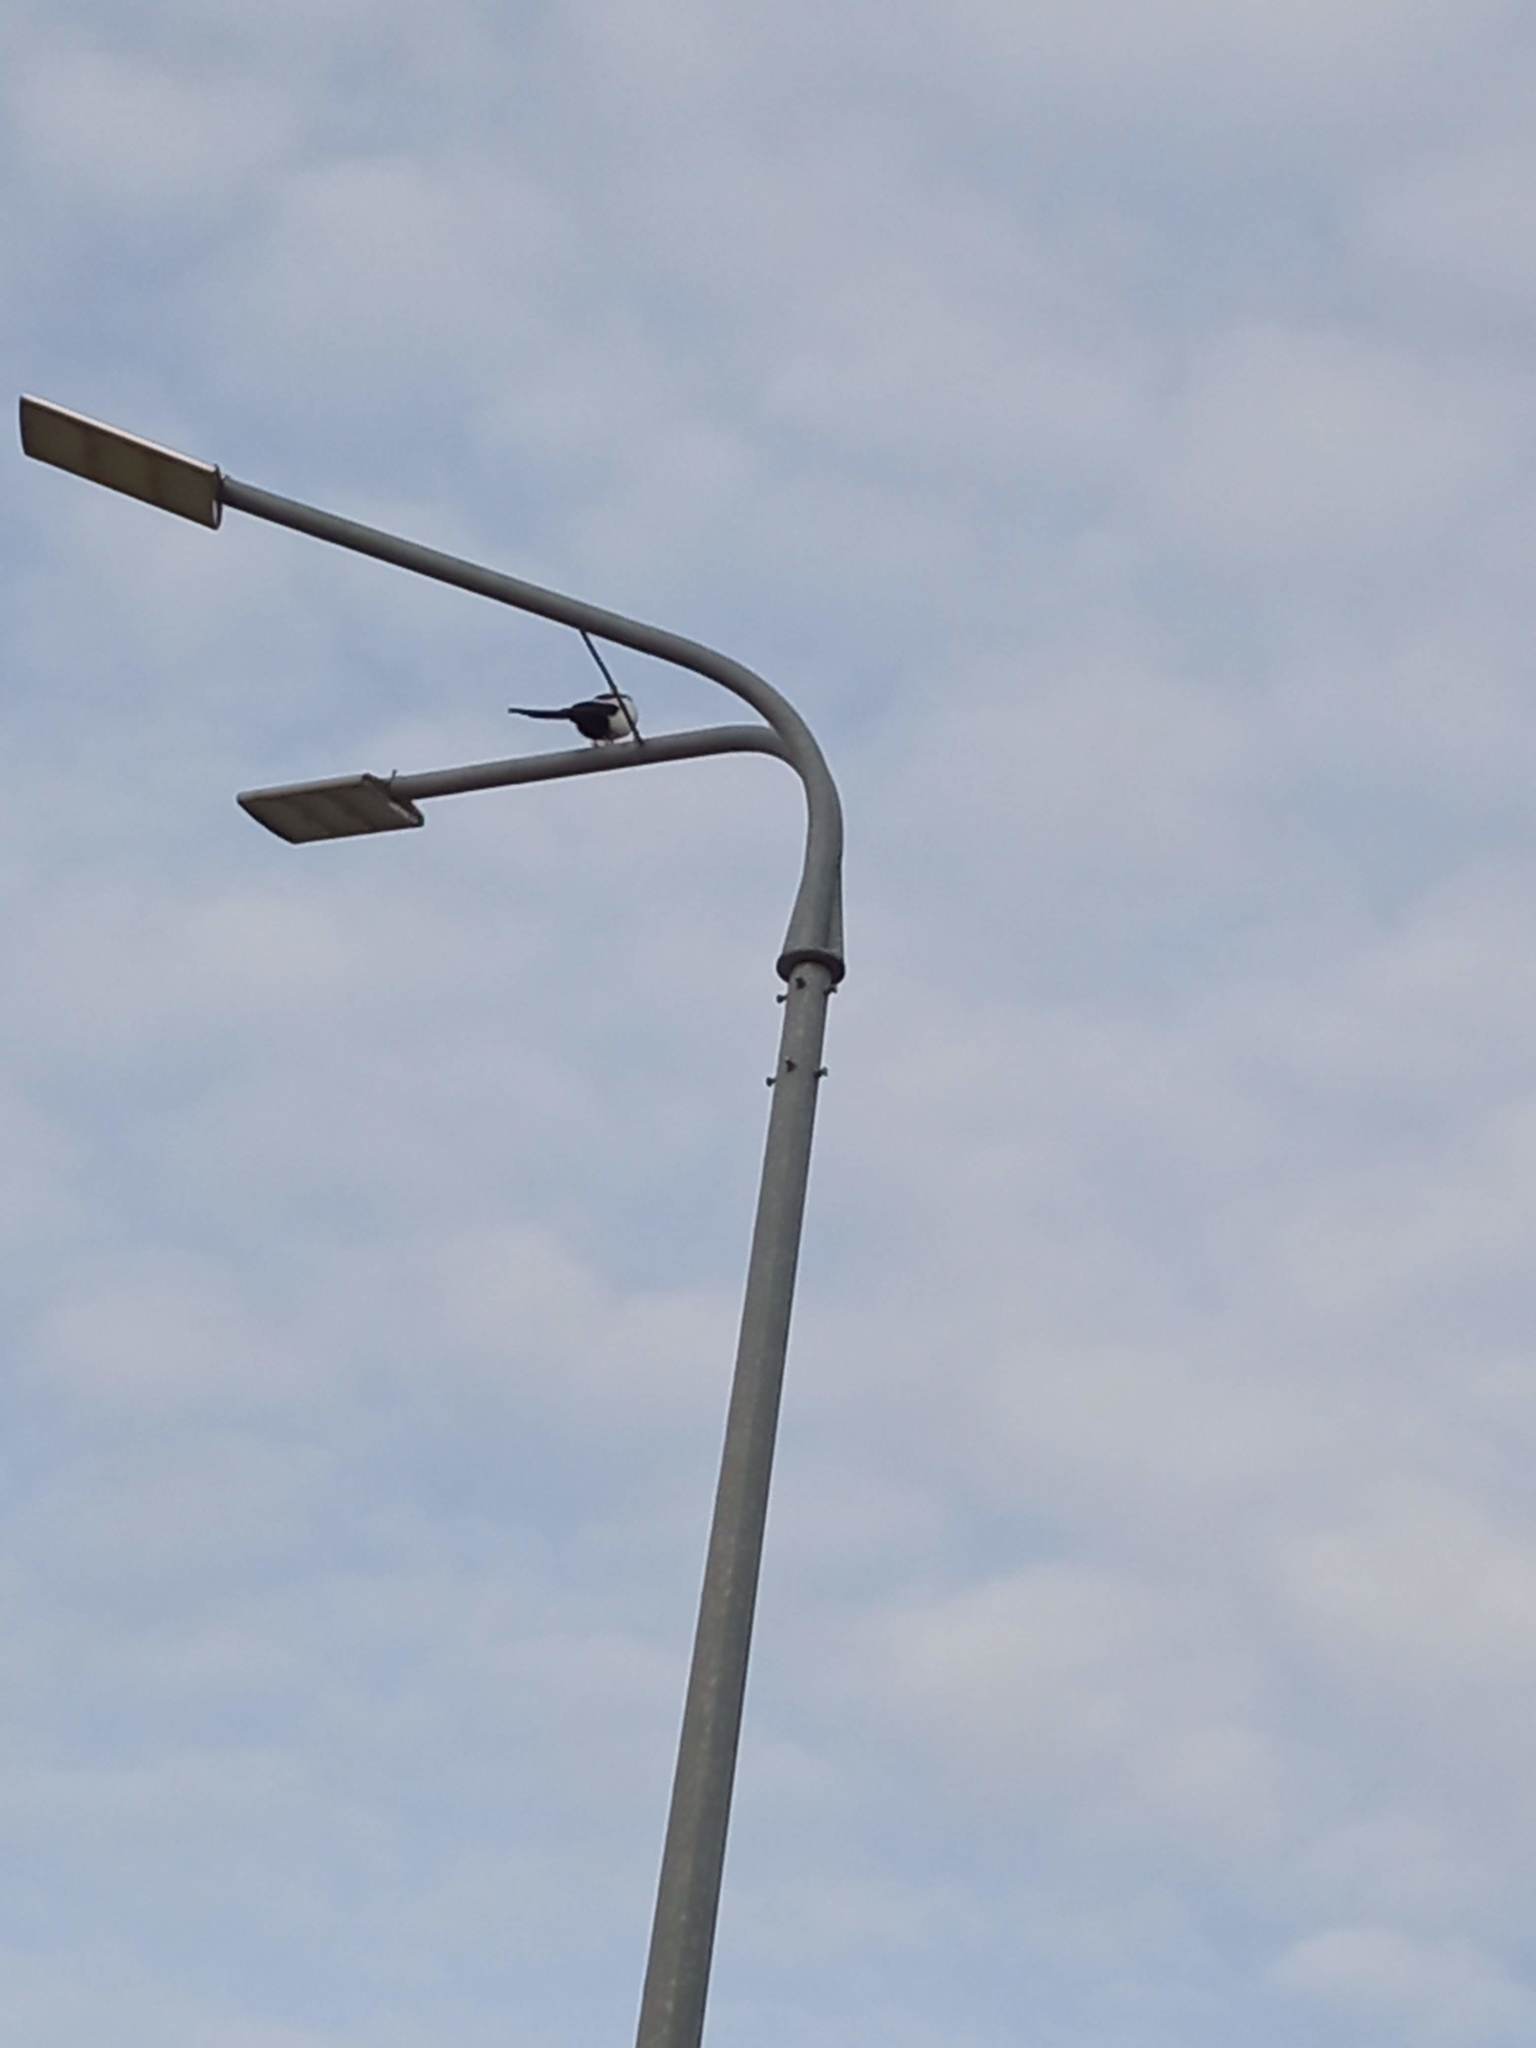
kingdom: Animalia
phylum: Chordata
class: Aves
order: Passeriformes
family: Corvidae
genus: Pica
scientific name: Pica pica
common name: Eurasian magpie
